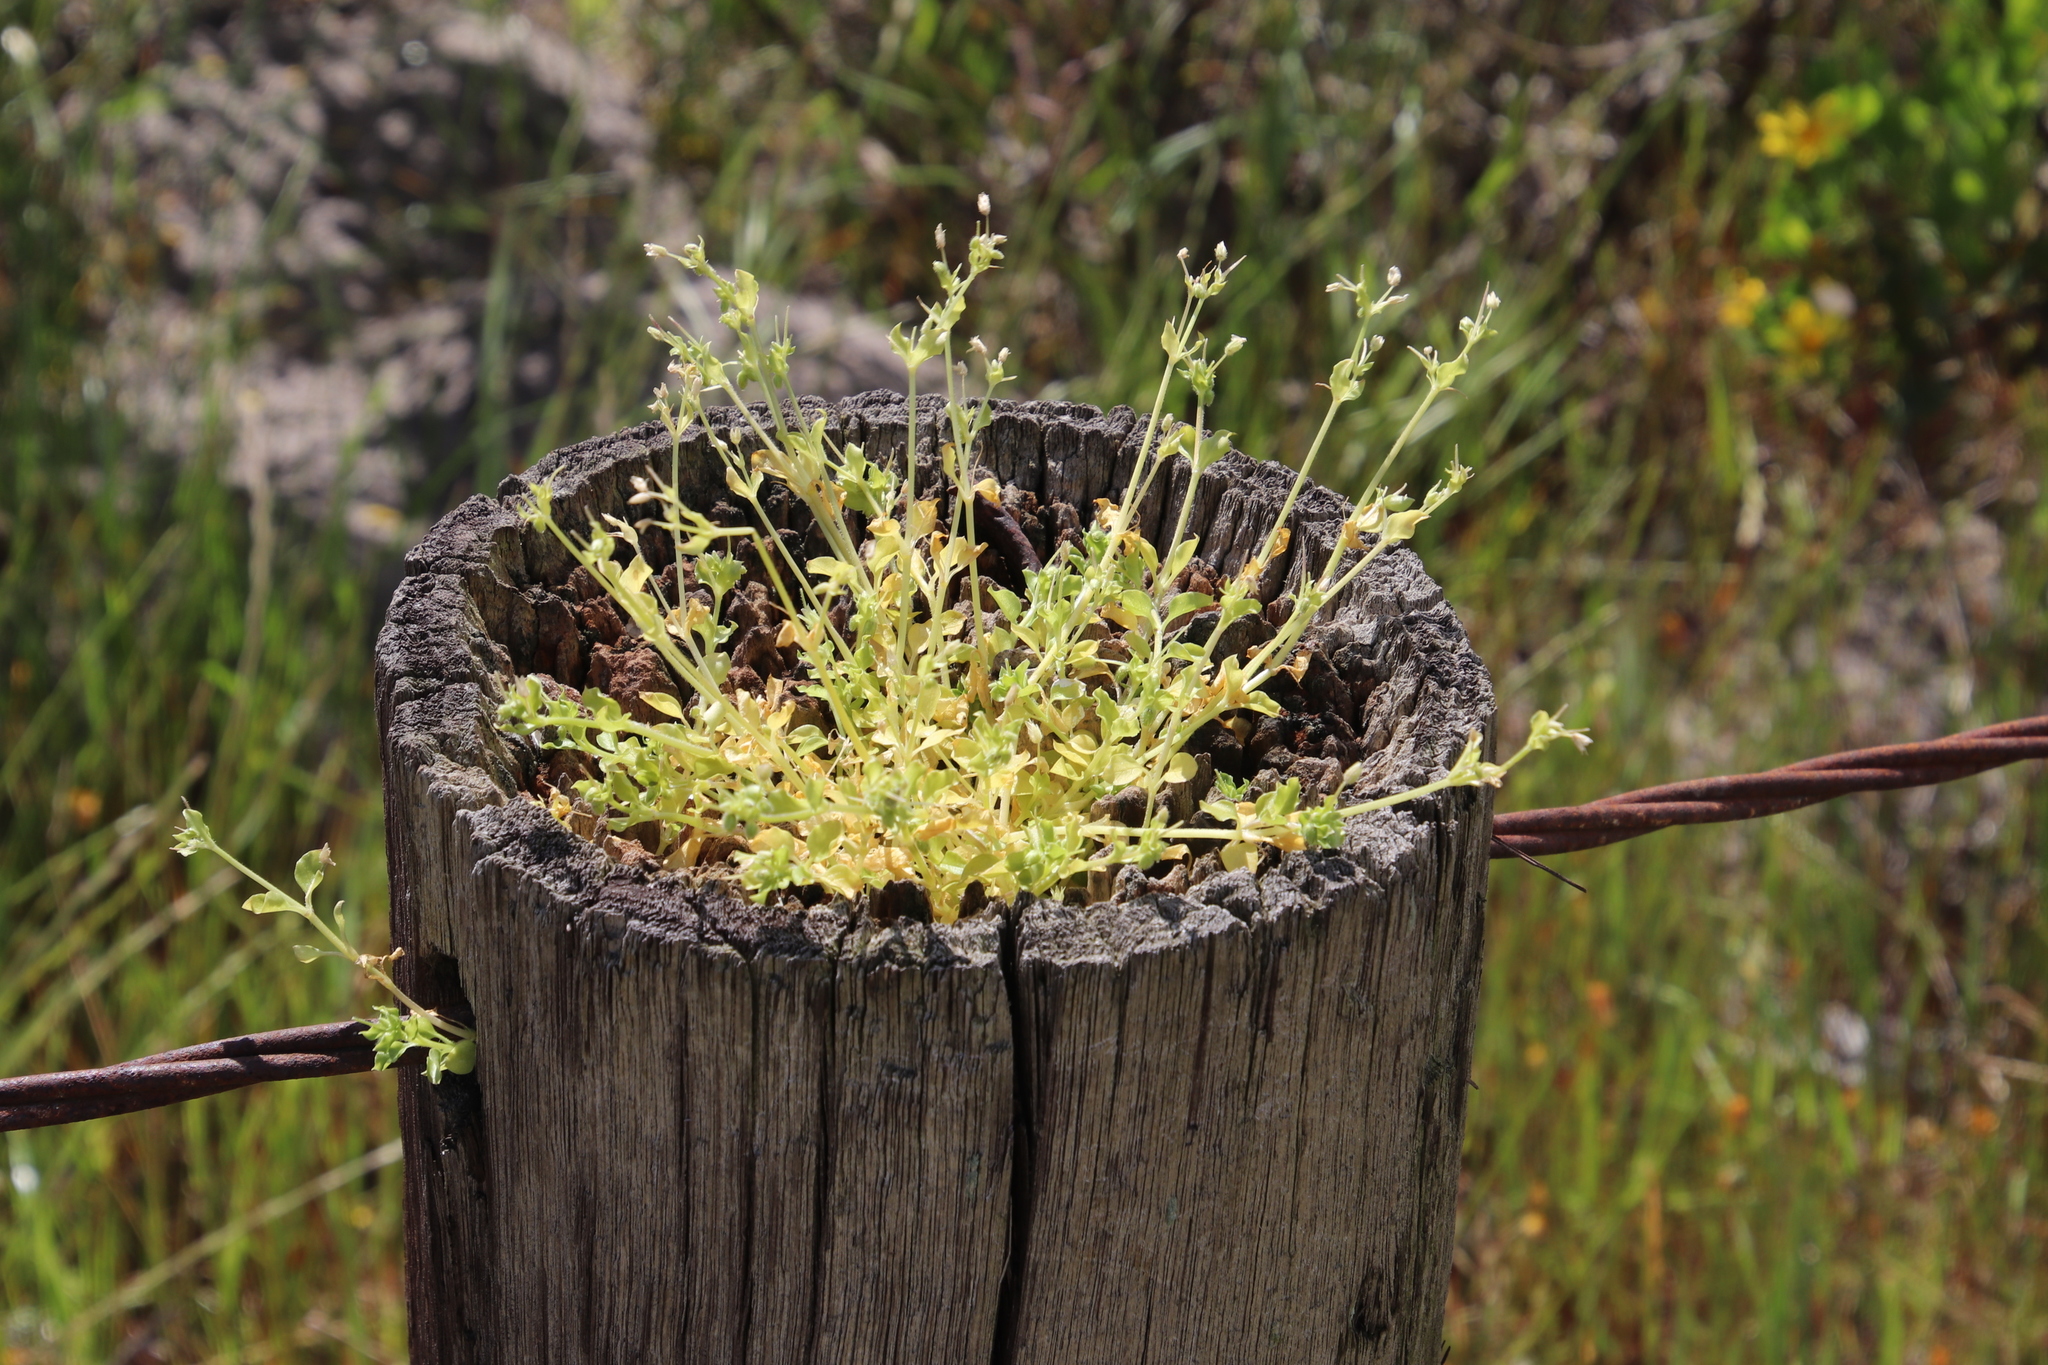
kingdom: Plantae
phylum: Tracheophyta
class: Magnoliopsida
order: Caryophyllales
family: Caryophyllaceae
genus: Stellaria
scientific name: Stellaria media
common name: Common chickweed
